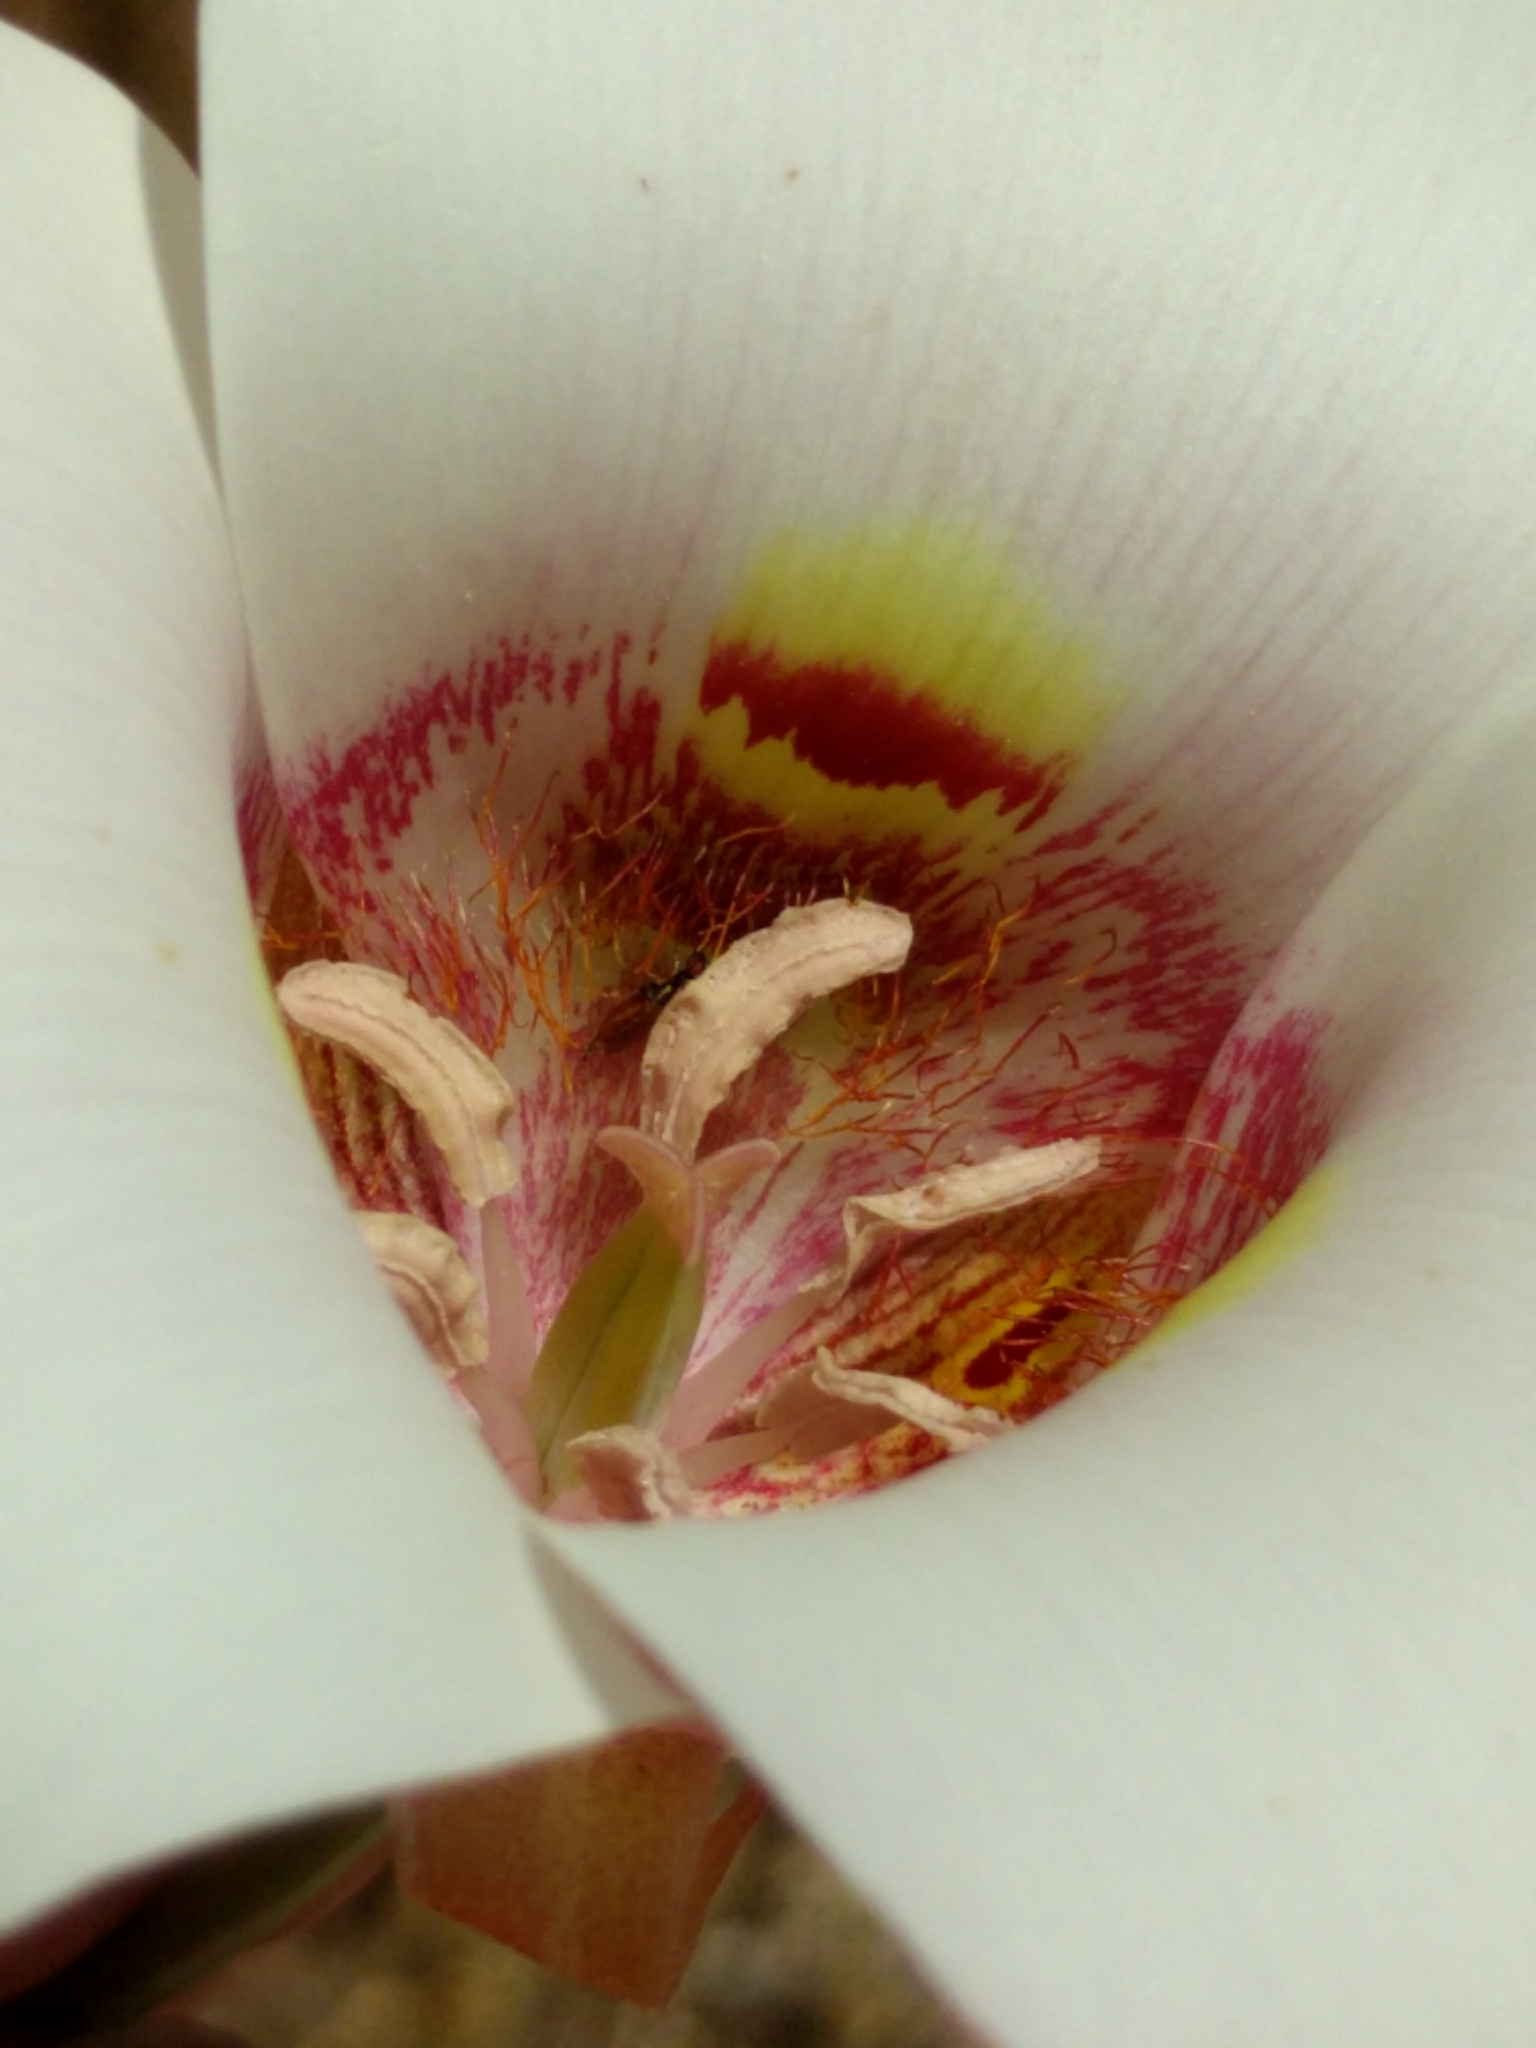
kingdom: Plantae
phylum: Tracheophyta
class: Liliopsida
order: Liliales
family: Liliaceae
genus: Calochortus
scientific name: Calochortus argillosus
